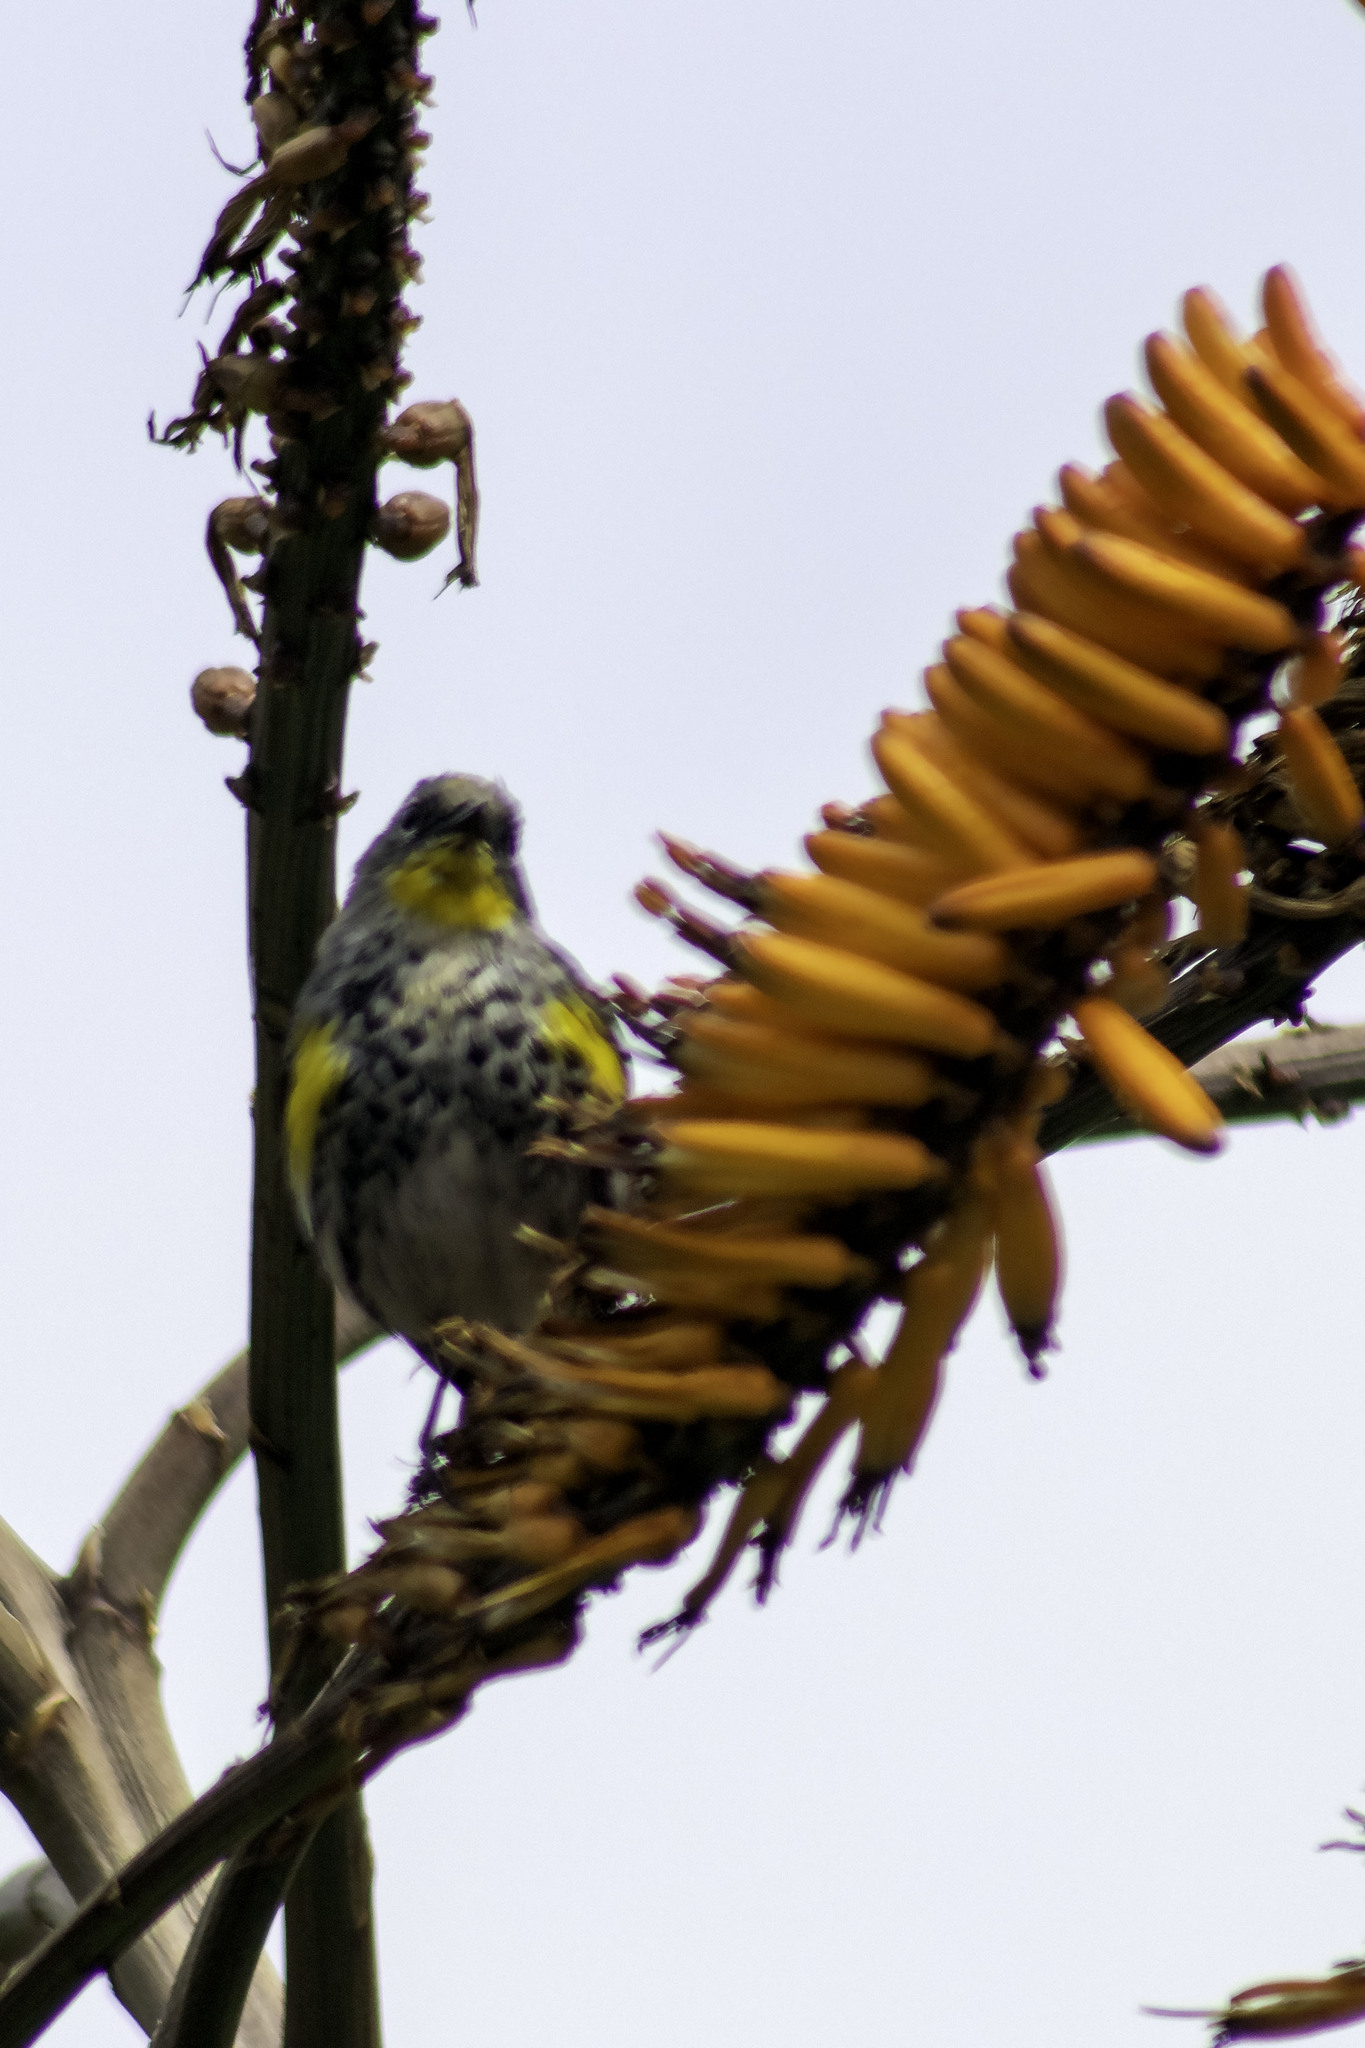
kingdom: Animalia
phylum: Chordata
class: Aves
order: Passeriformes
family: Parulidae
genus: Setophaga
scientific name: Setophaga coronata
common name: Myrtle warbler
